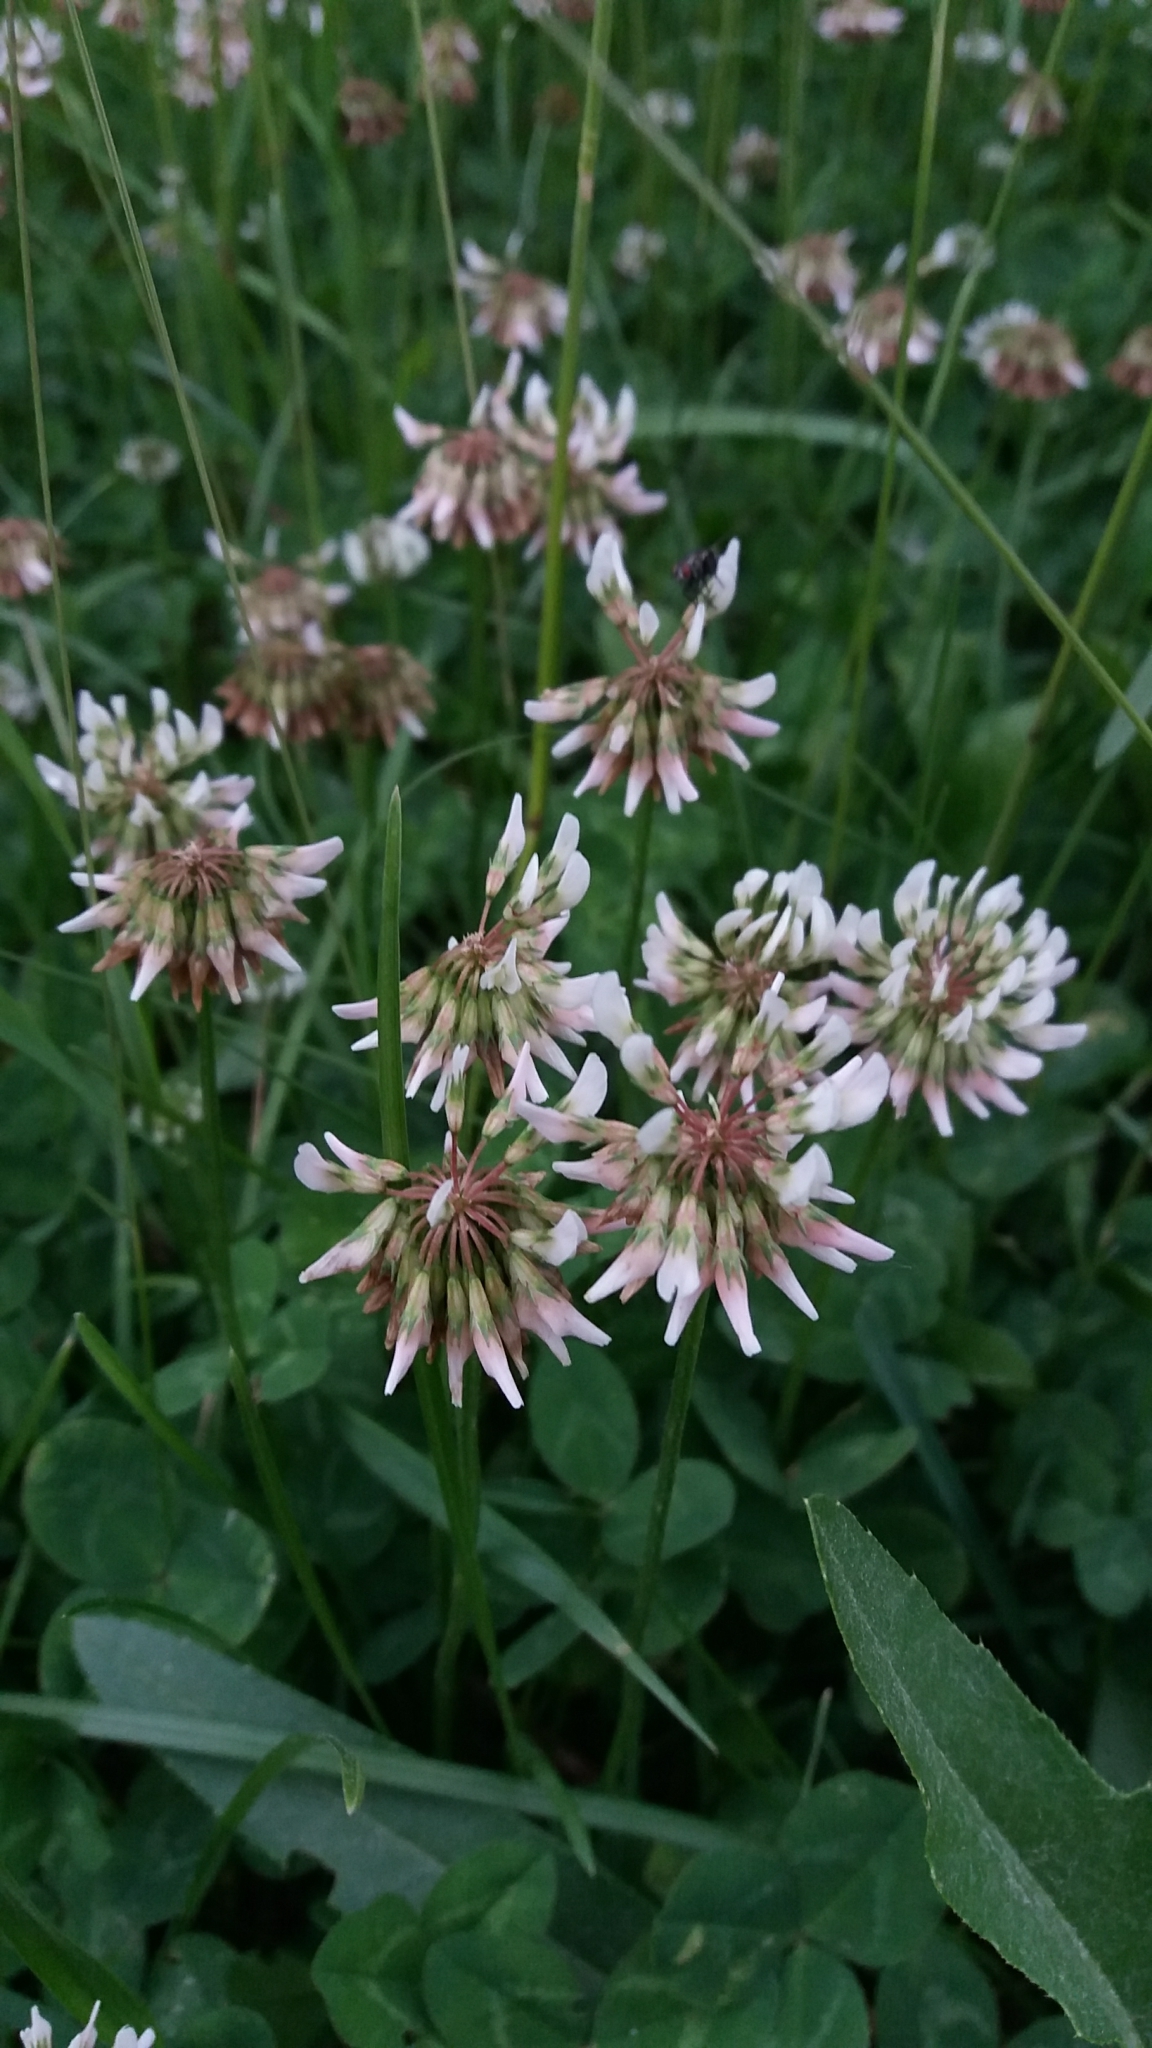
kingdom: Plantae
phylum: Tracheophyta
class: Magnoliopsida
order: Fabales
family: Fabaceae
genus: Trifolium
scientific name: Trifolium repens
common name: White clover
